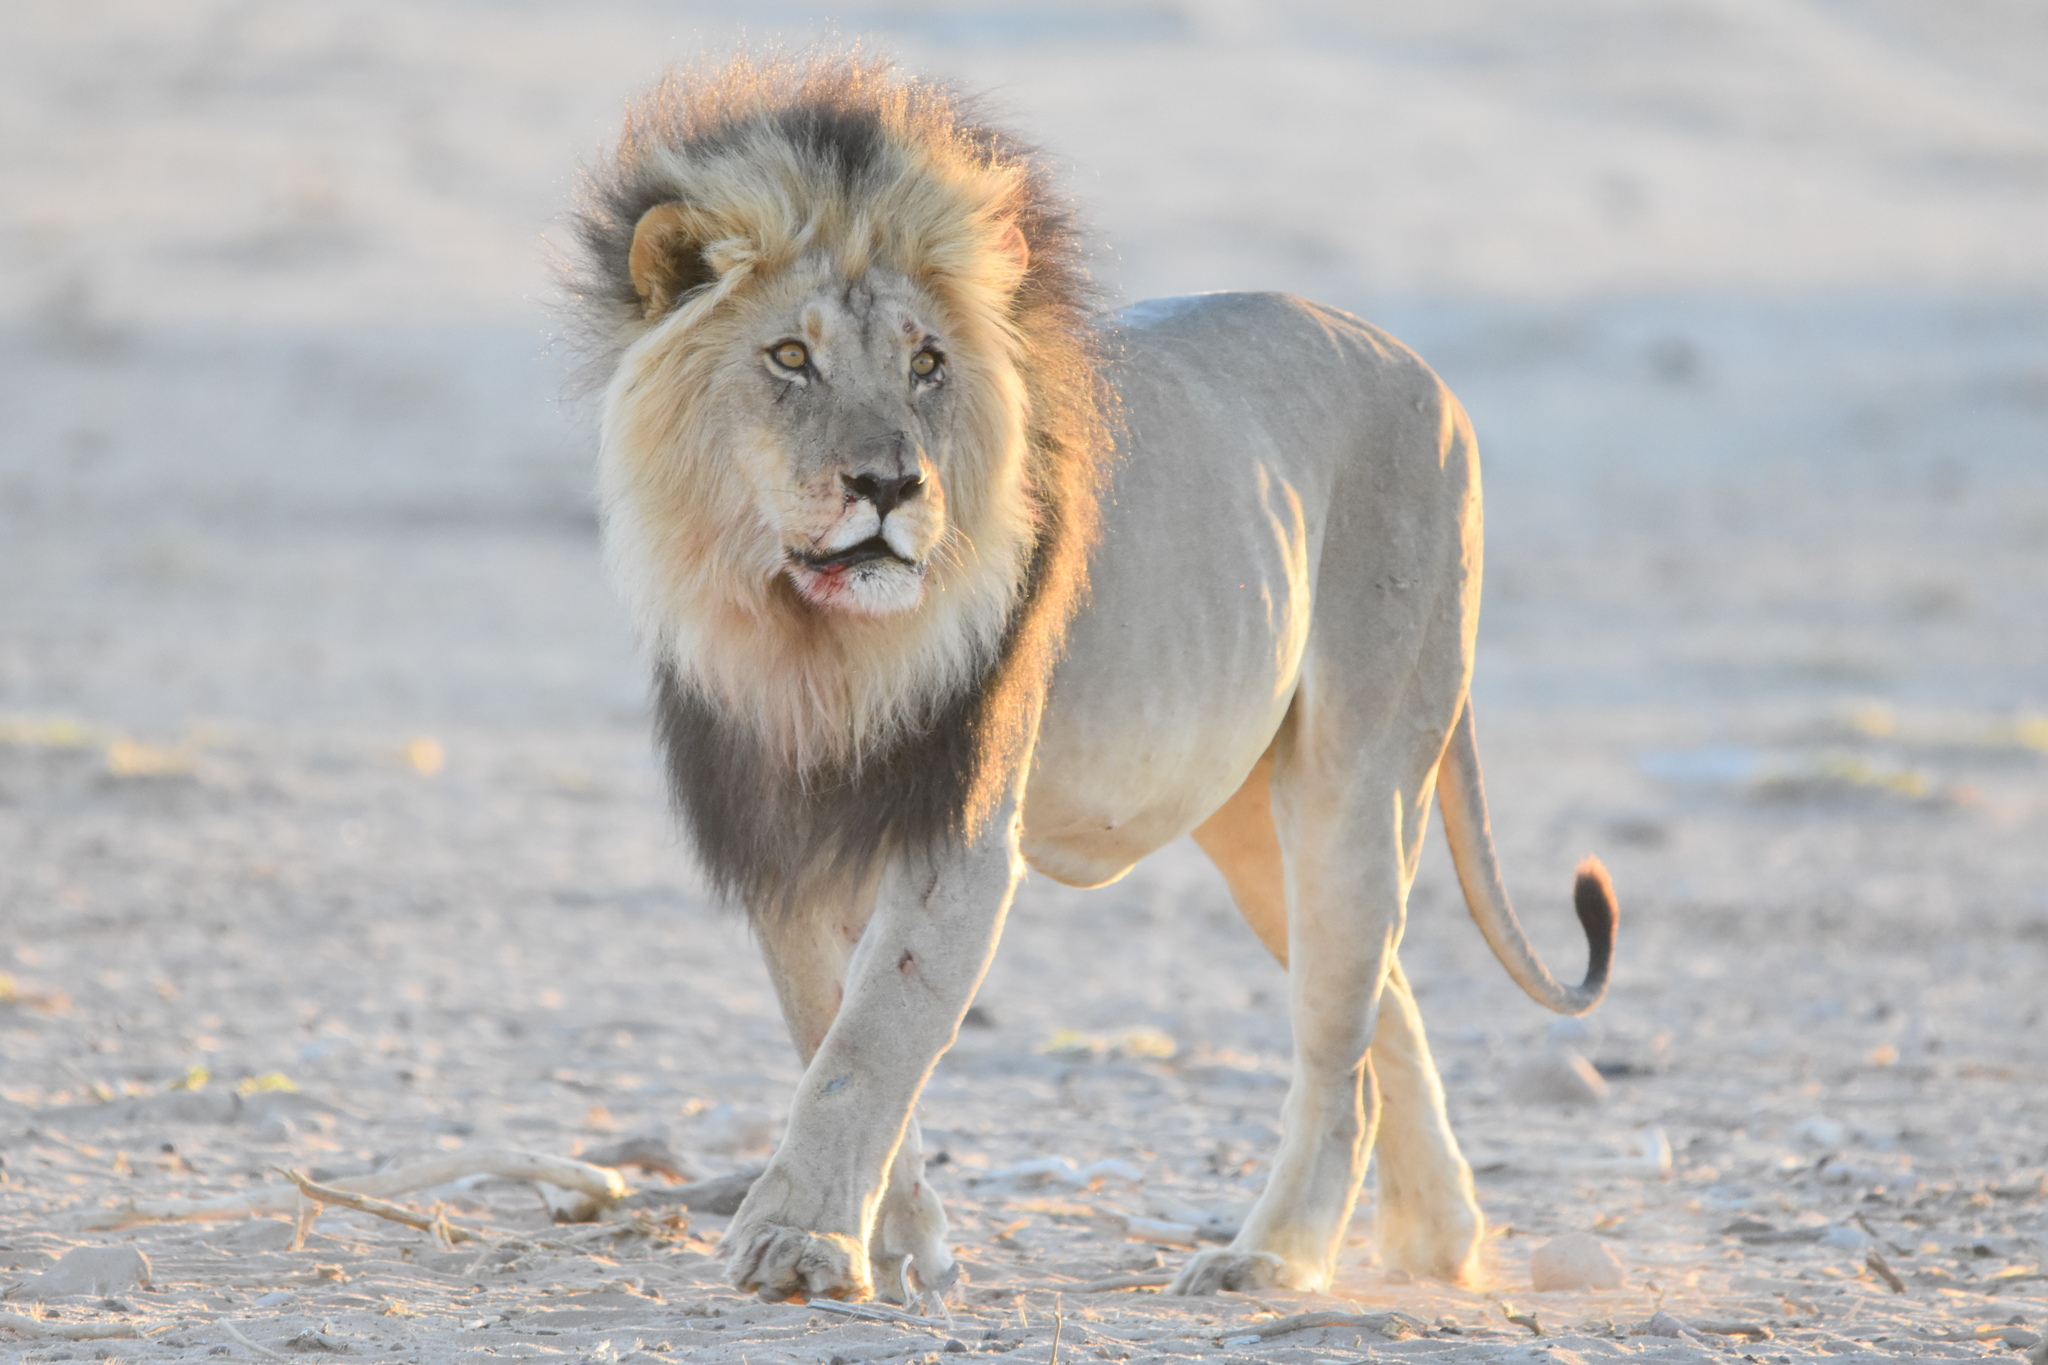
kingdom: Animalia
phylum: Chordata
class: Mammalia
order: Carnivora
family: Felidae
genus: Panthera
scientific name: Panthera leo
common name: Lion
